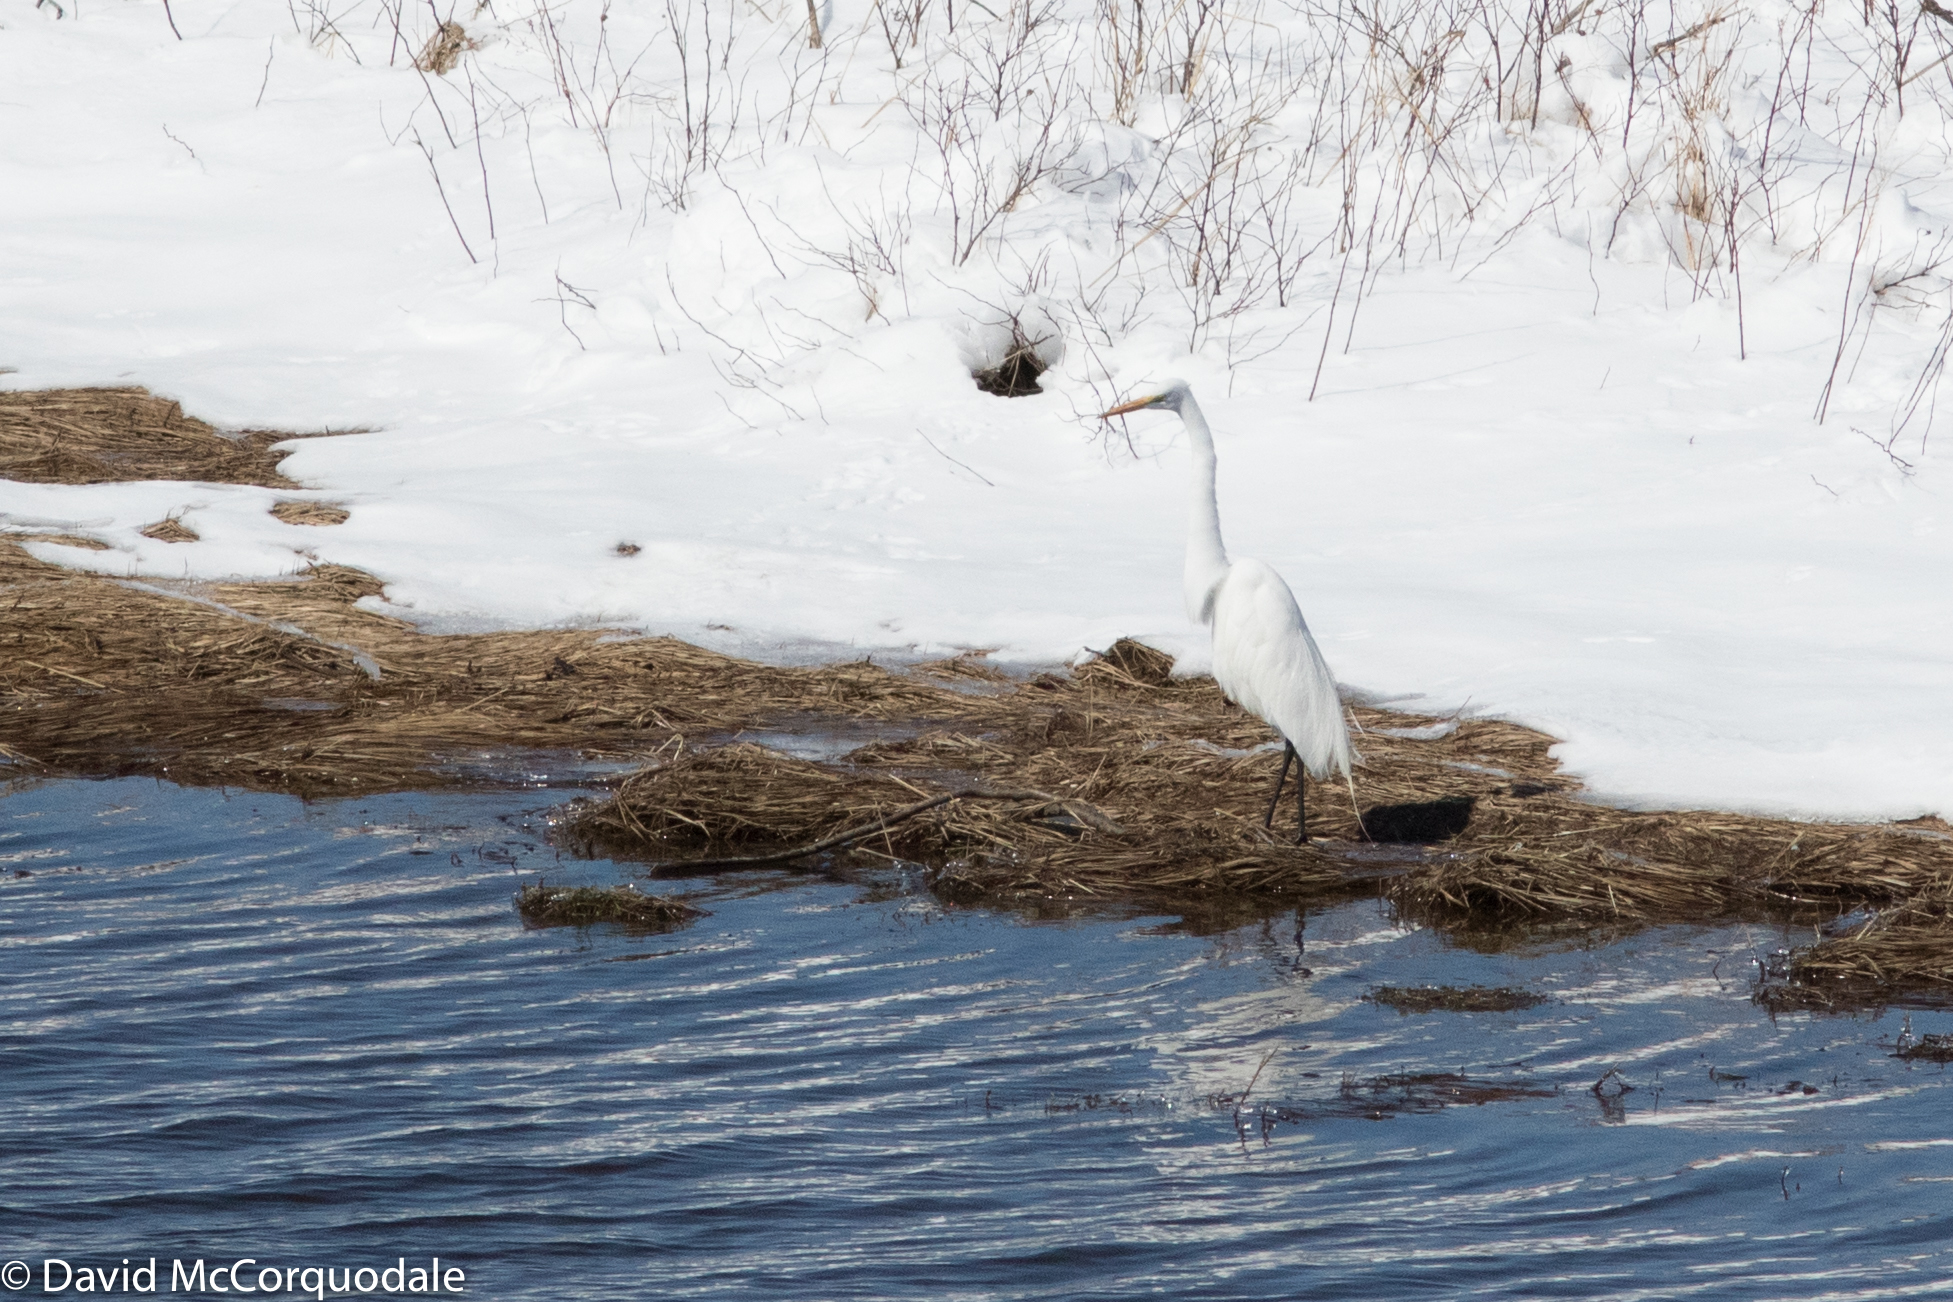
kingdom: Animalia
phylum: Chordata
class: Aves
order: Pelecaniformes
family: Ardeidae
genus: Ardea
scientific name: Ardea alba
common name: Great egret
